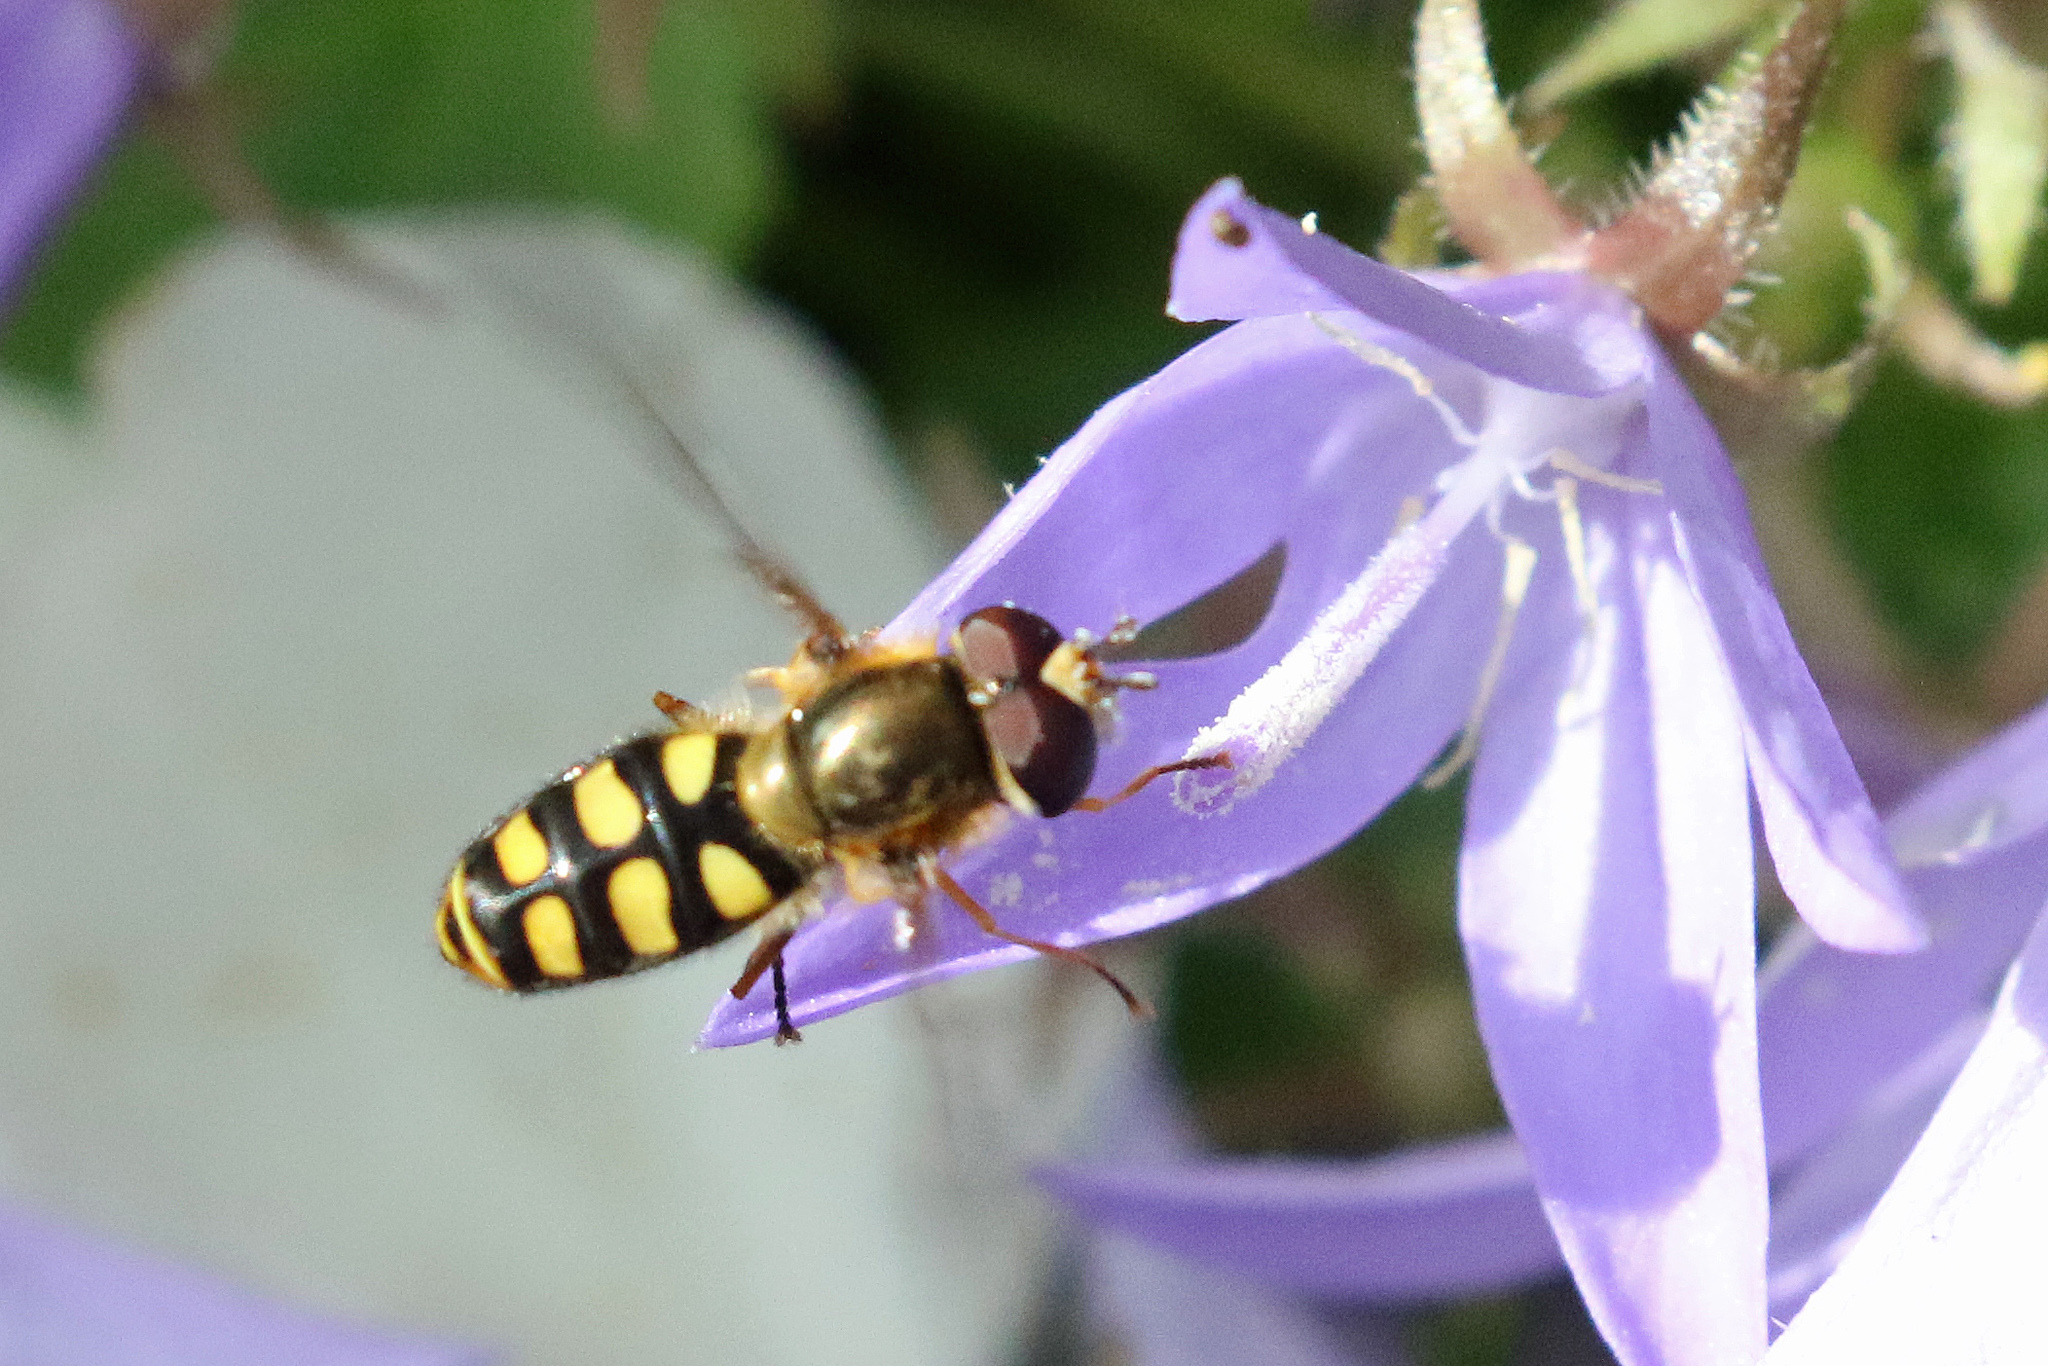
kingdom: Animalia
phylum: Arthropoda
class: Insecta
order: Diptera
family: Syrphidae
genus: Eupeodes
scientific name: Eupeodes luniger
